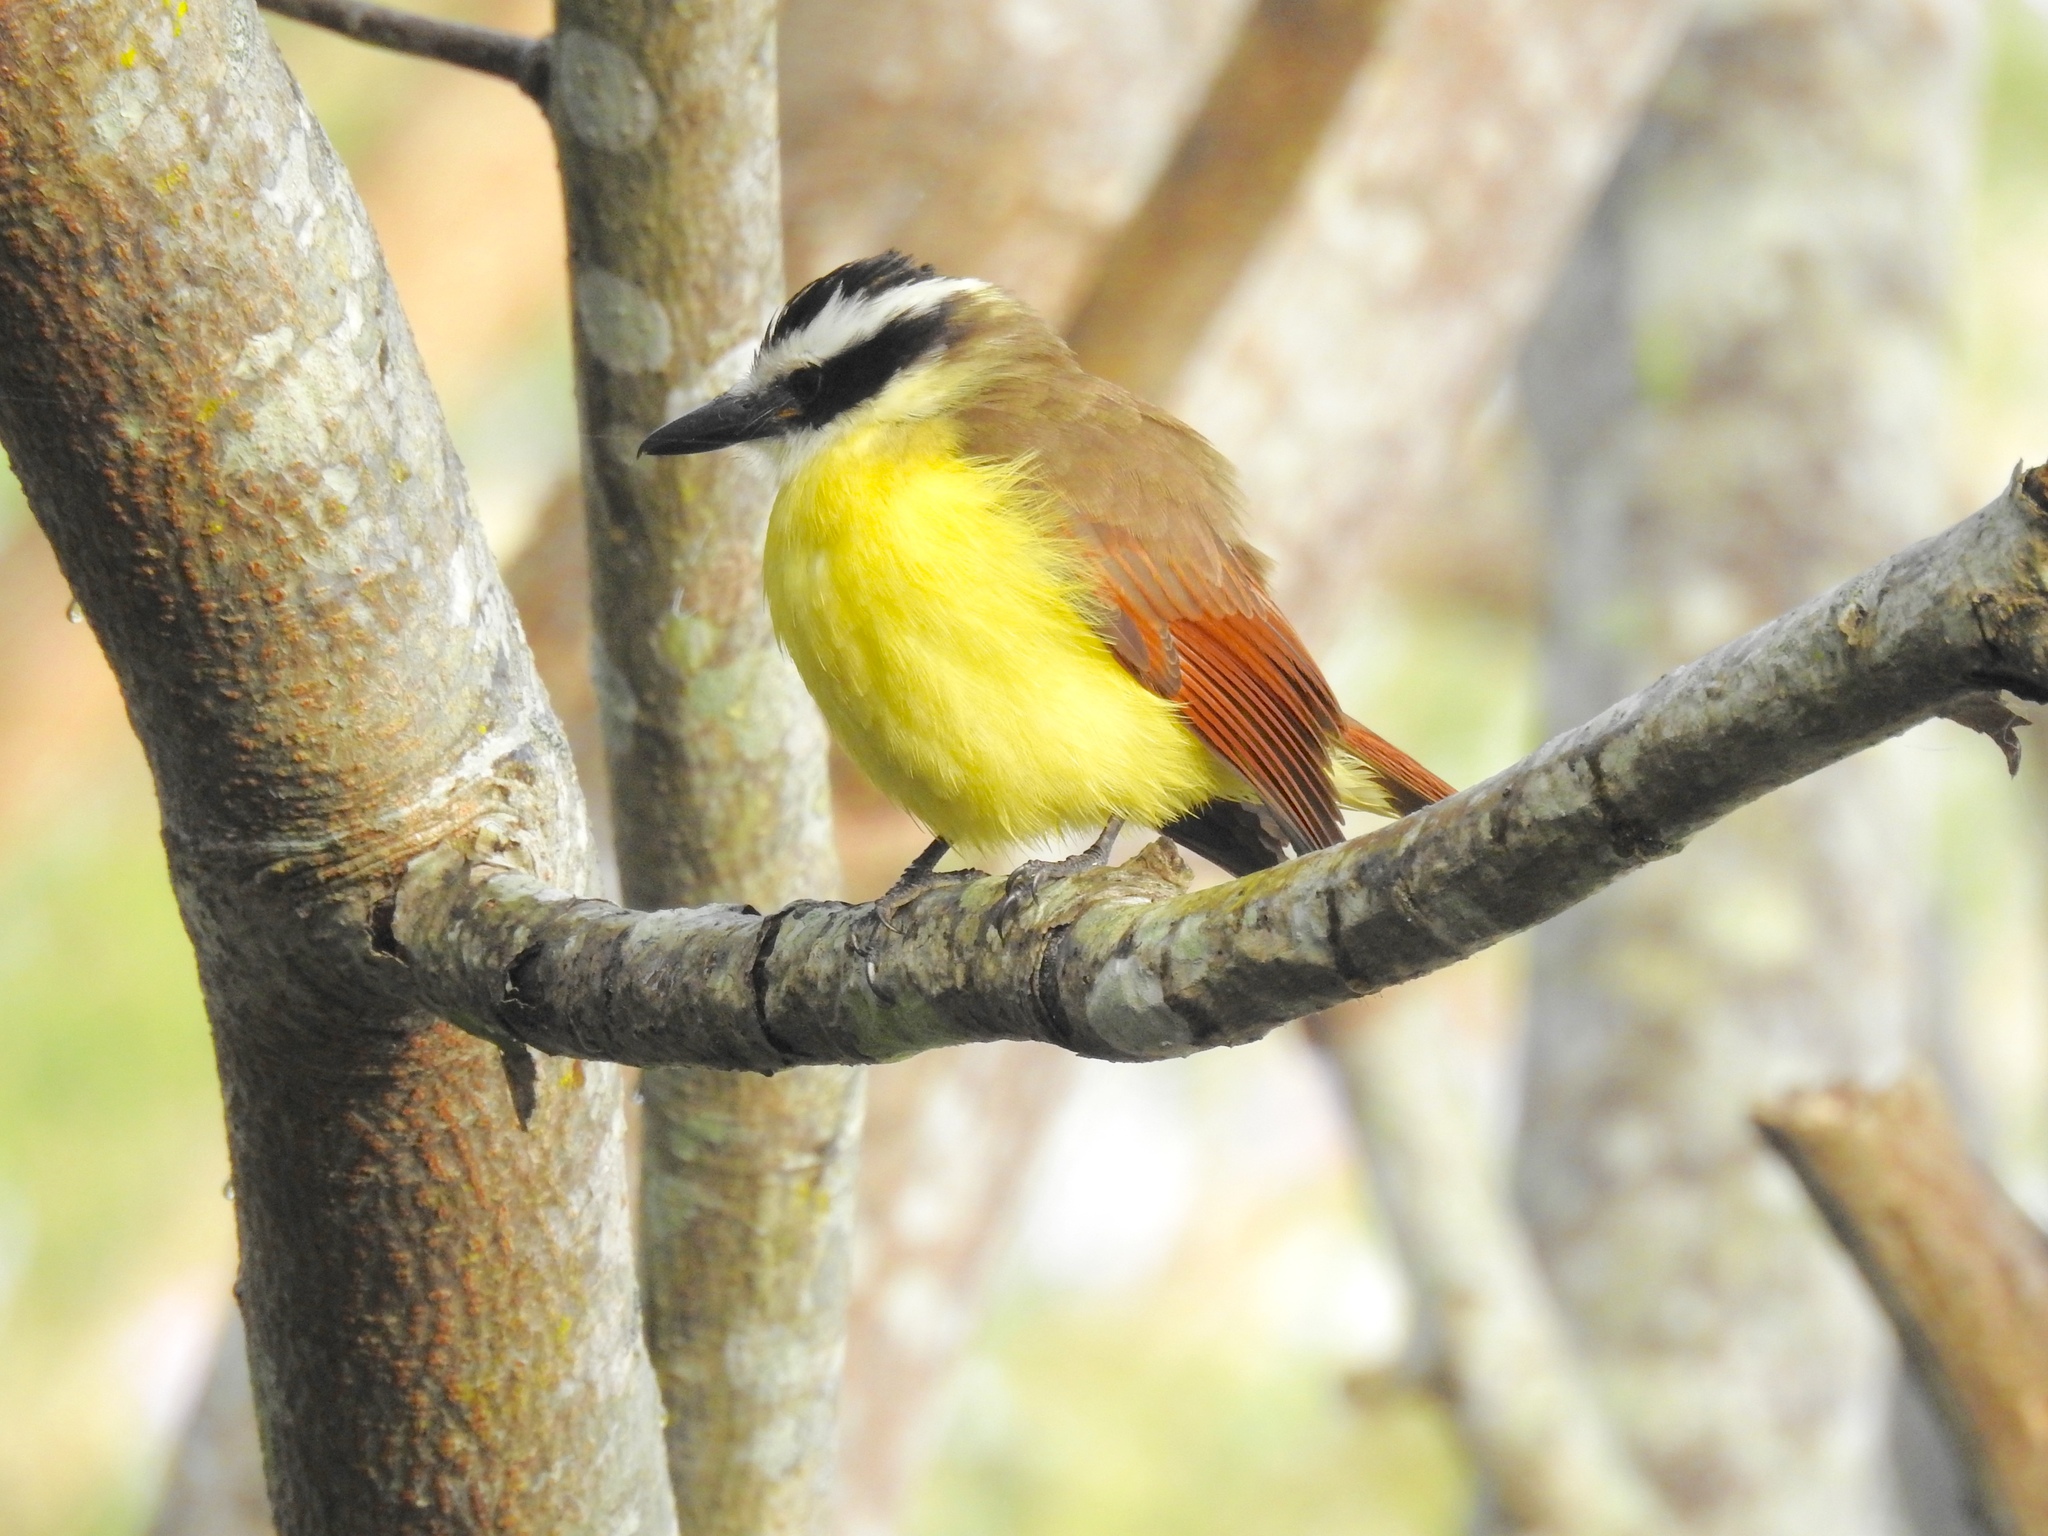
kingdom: Animalia
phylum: Chordata
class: Aves
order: Passeriformes
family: Tyrannidae
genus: Pitangus
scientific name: Pitangus sulphuratus
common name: Great kiskadee
